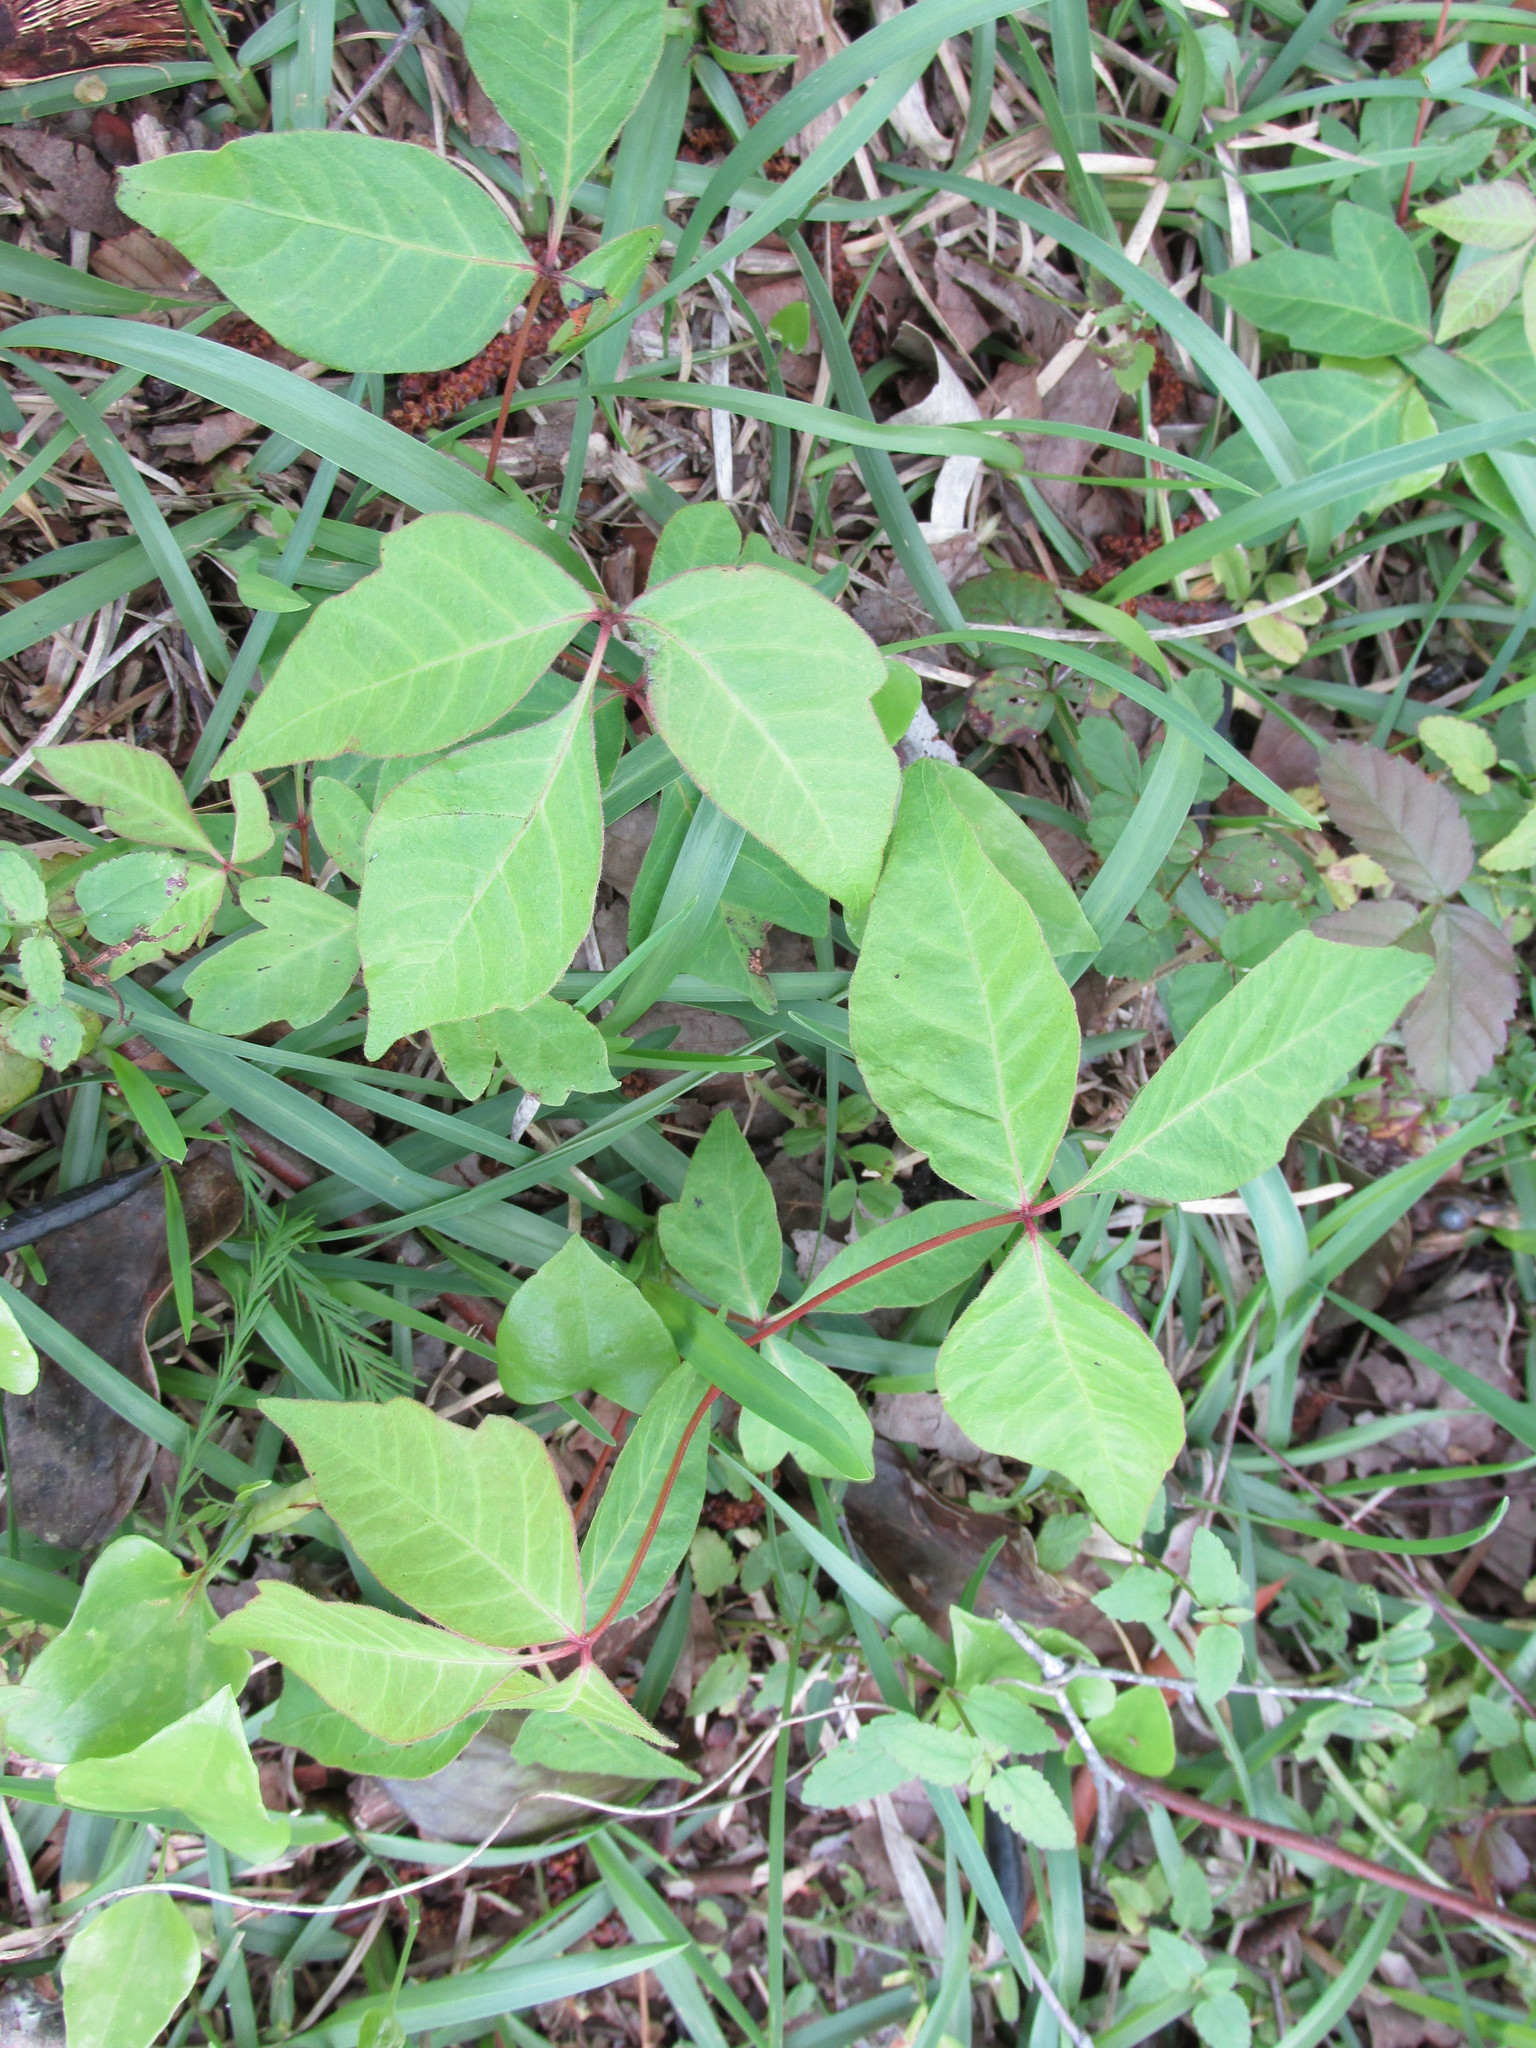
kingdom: Plantae
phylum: Tracheophyta
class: Magnoliopsida
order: Sapindales
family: Anacardiaceae
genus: Toxicodendron
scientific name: Toxicodendron radicans
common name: Poison ivy
